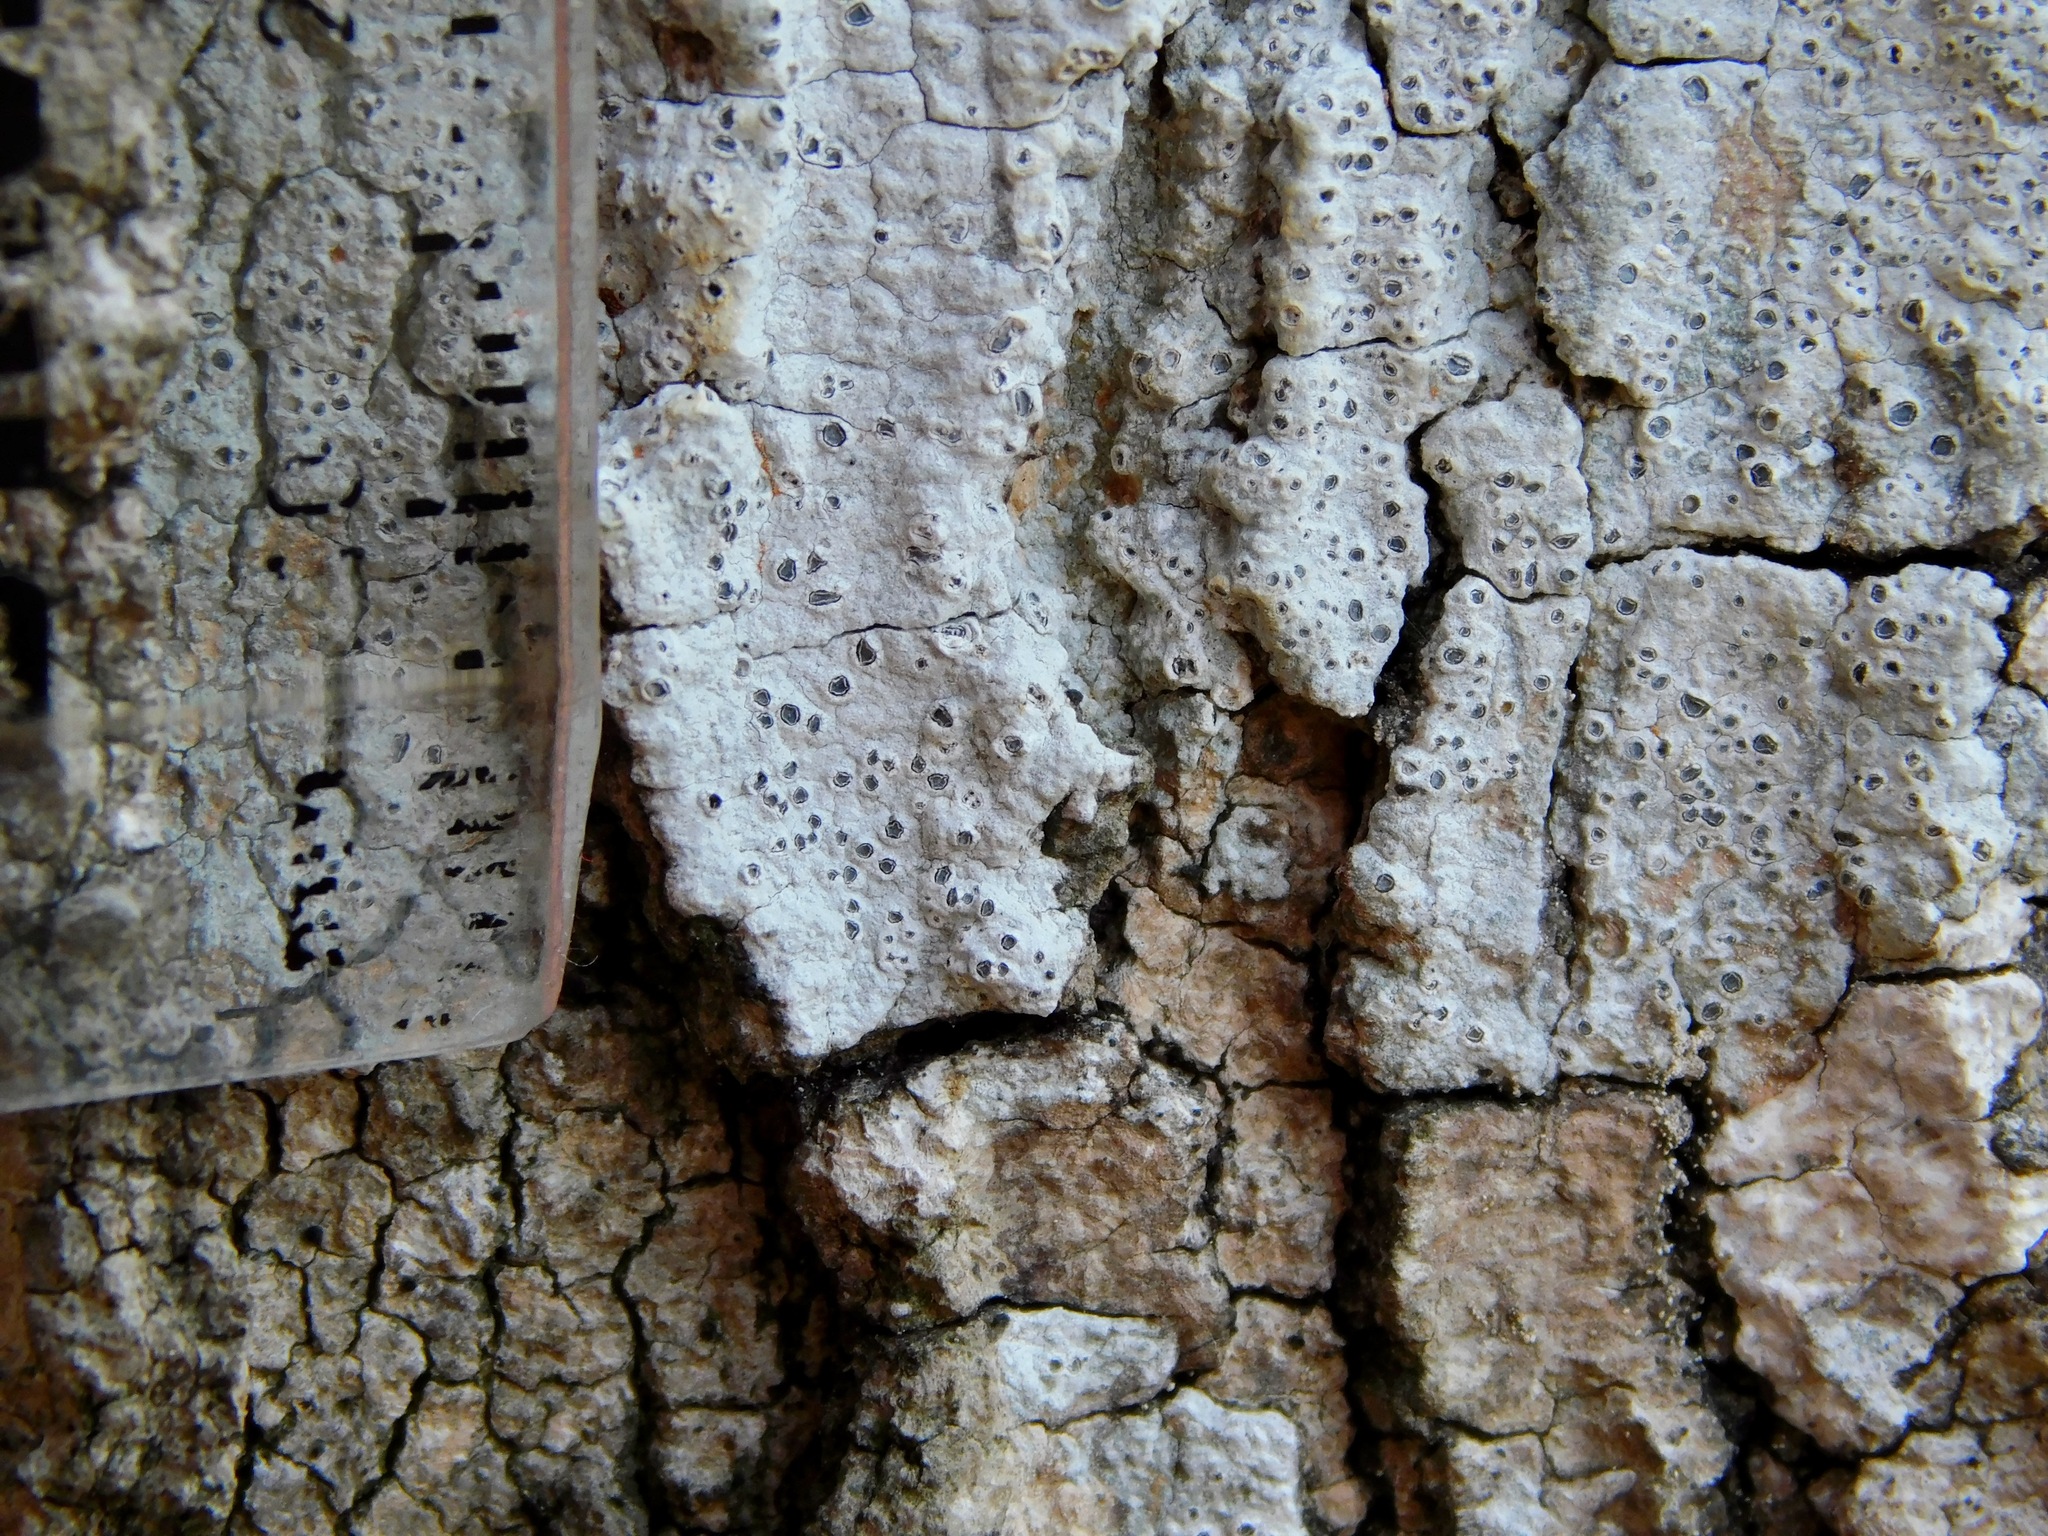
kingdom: Fungi
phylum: Ascomycota
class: Lecanoromycetes
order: Ostropales
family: Graphidaceae
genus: Thelotrema
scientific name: Thelotrema subtile
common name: Delicate barnacles lichen
